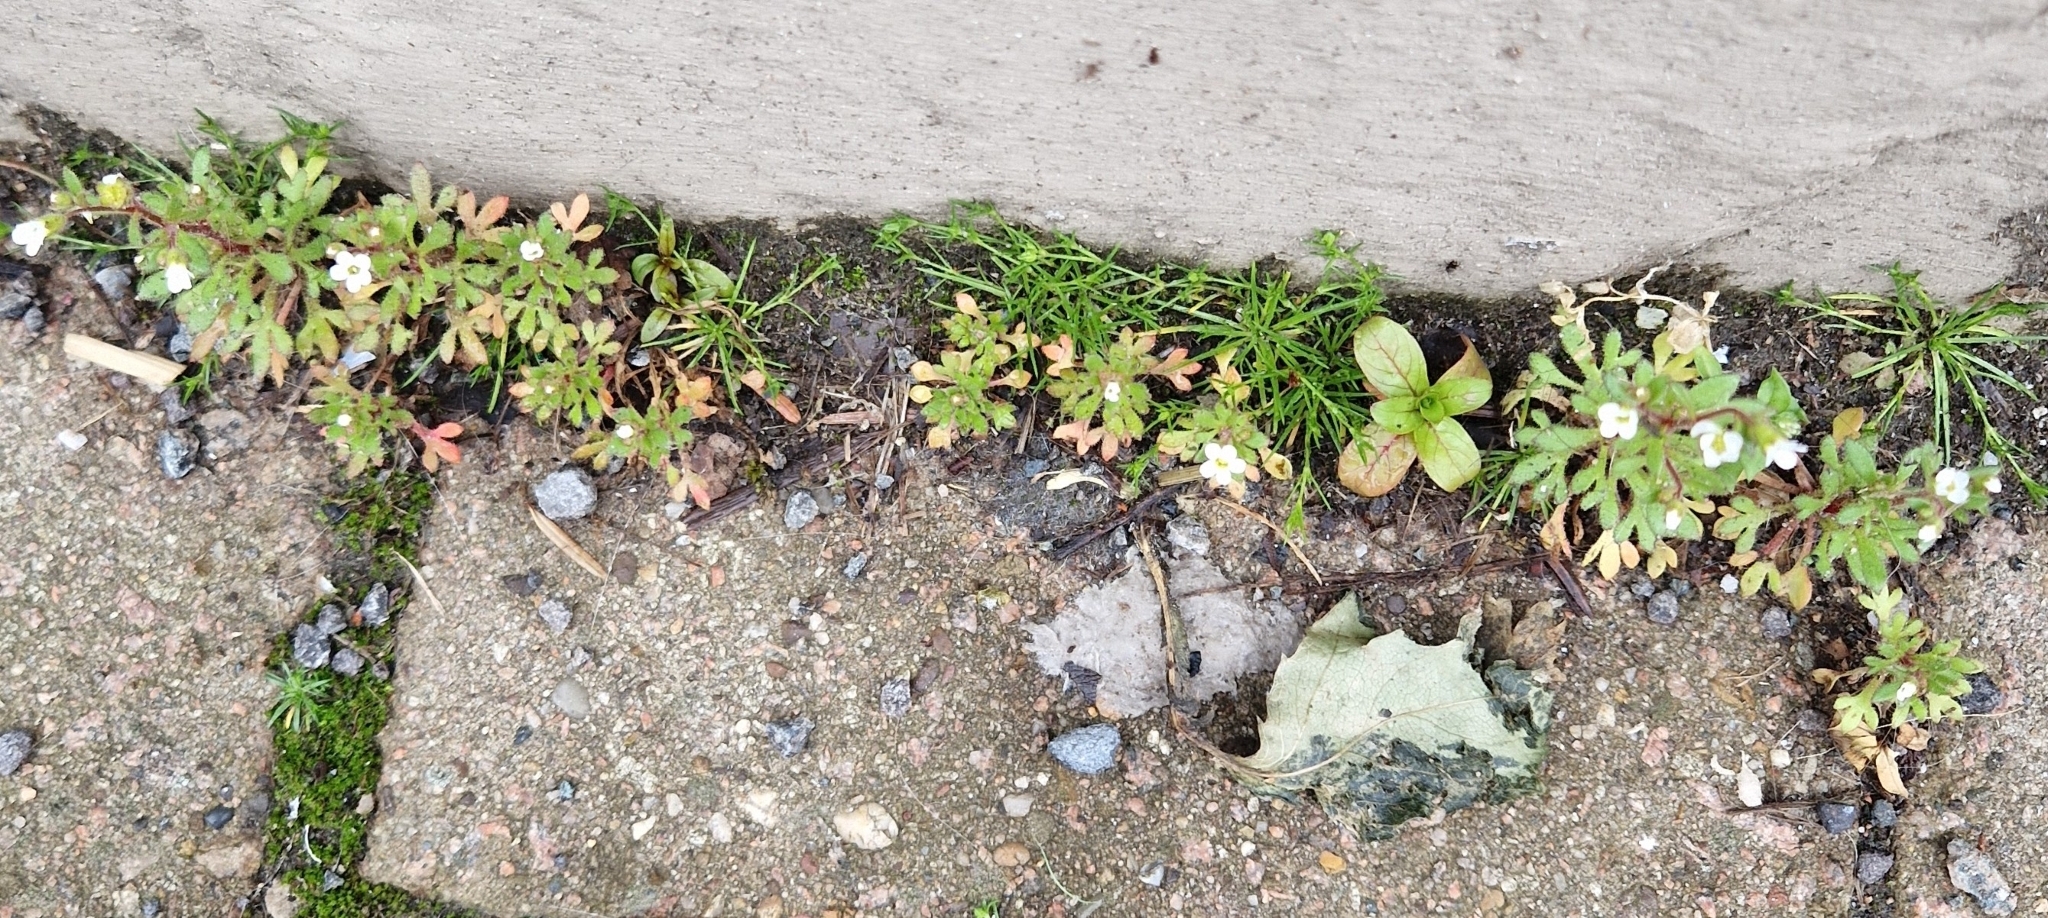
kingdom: Plantae
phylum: Tracheophyta
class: Magnoliopsida
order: Saxifragales
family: Saxifragaceae
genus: Saxifraga
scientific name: Saxifraga tridactylites
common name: Rue-leaved saxifrage
